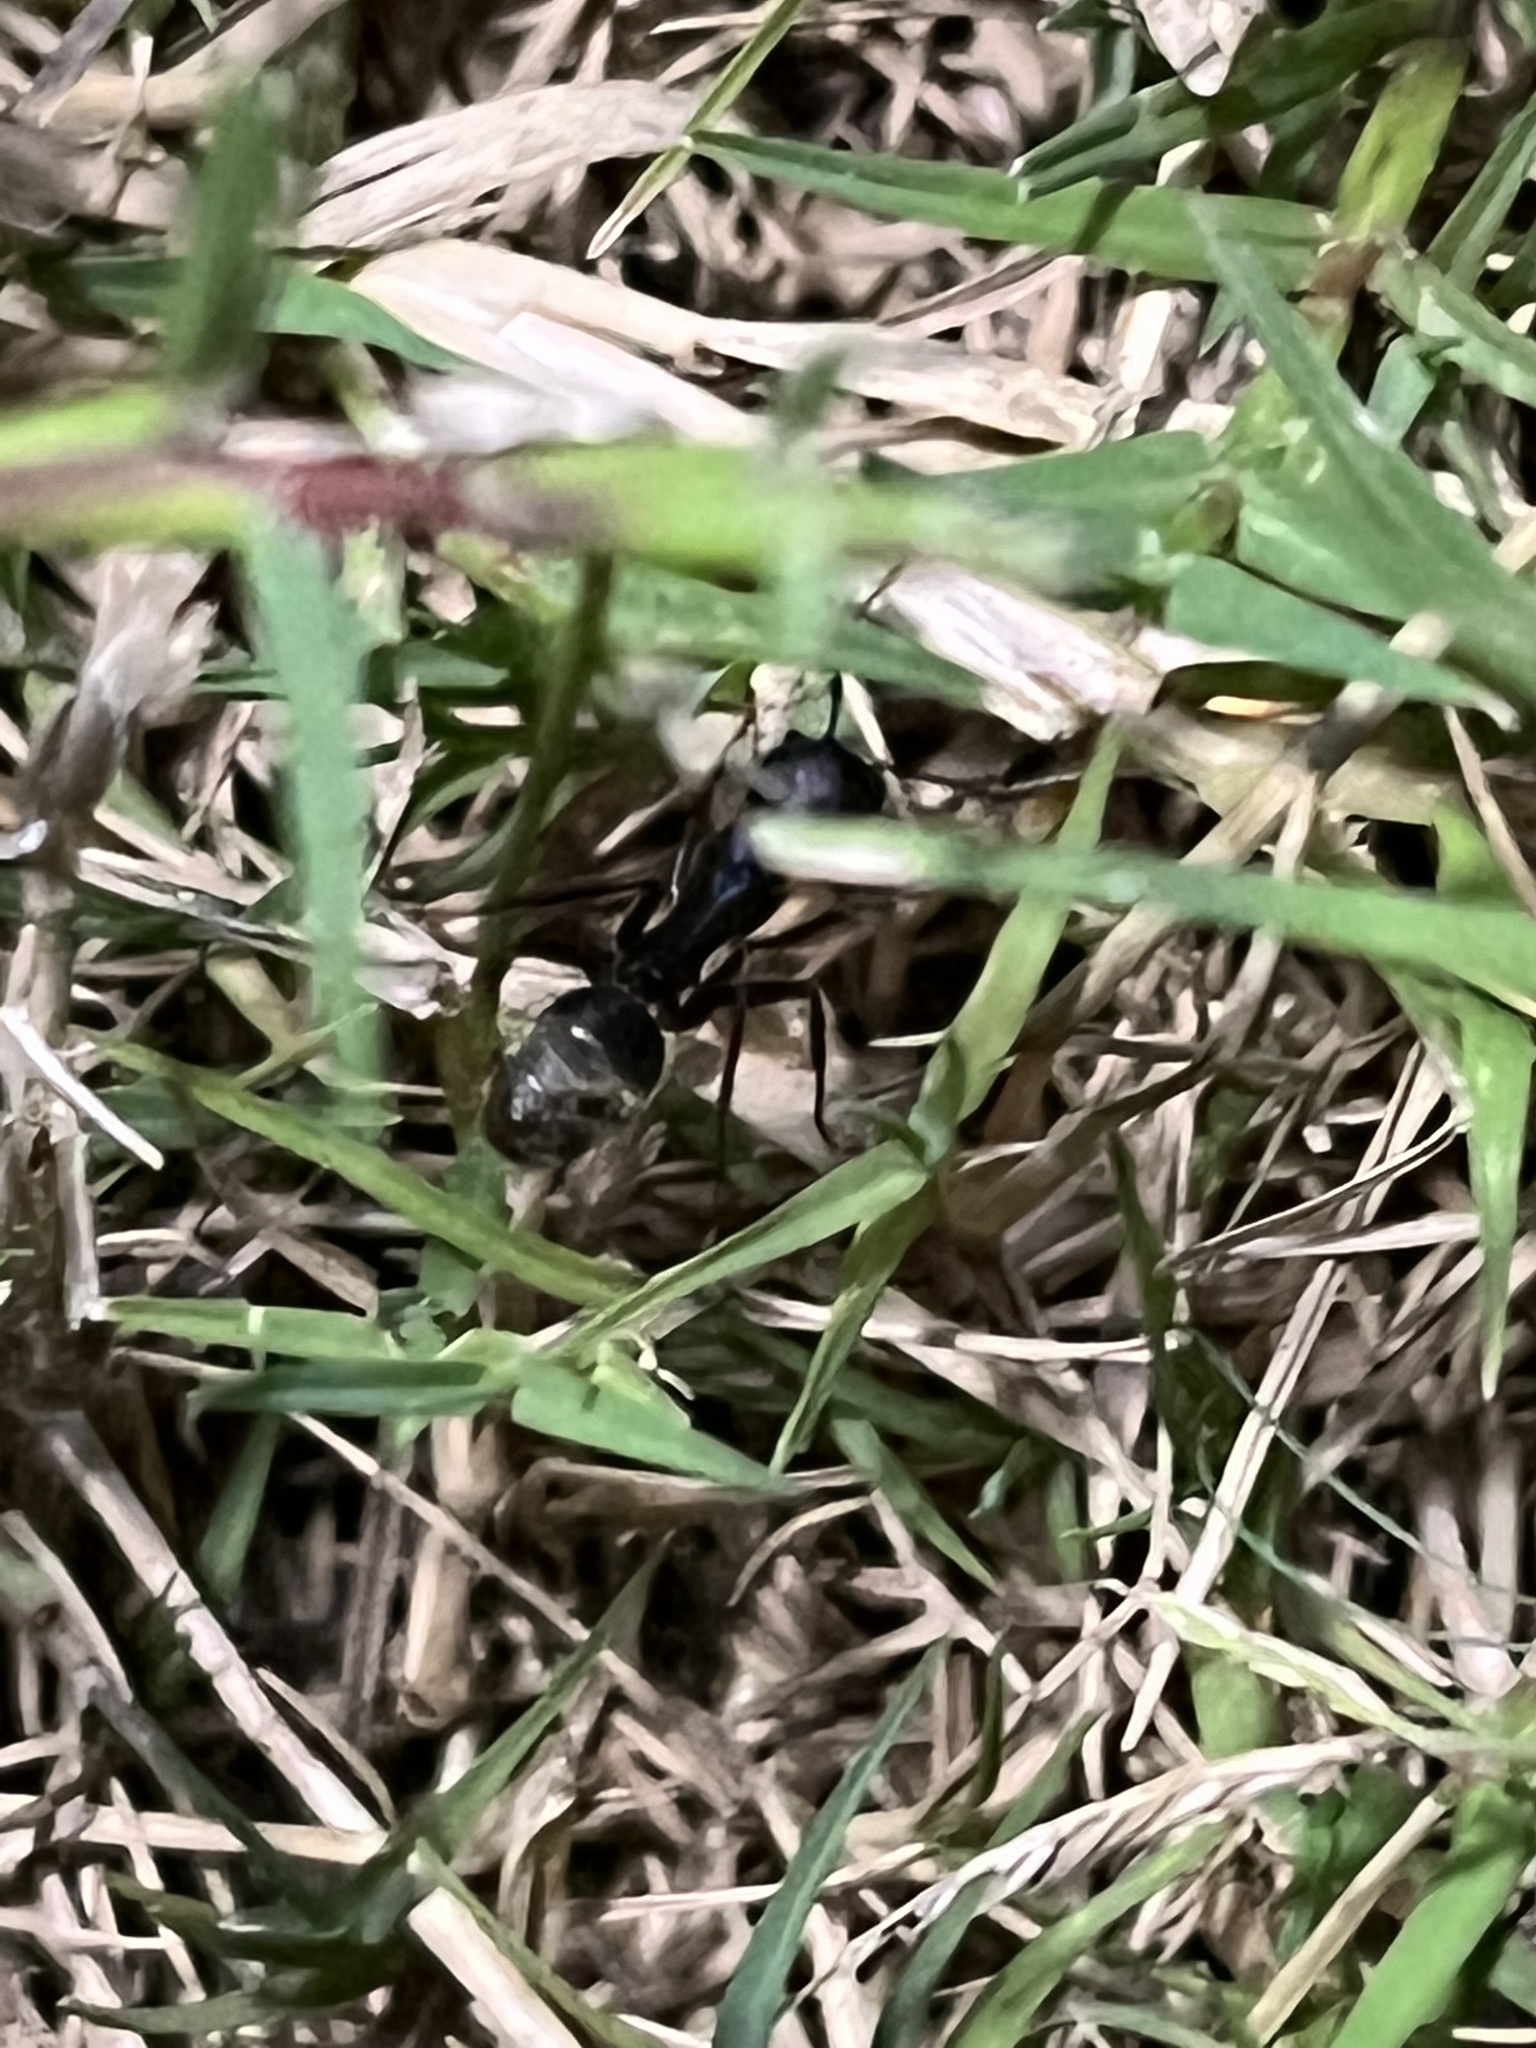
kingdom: Animalia
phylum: Arthropoda
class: Insecta
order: Hymenoptera
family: Formicidae
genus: Camponotus
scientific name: Camponotus pennsylvanicus
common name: Black carpenter ant
